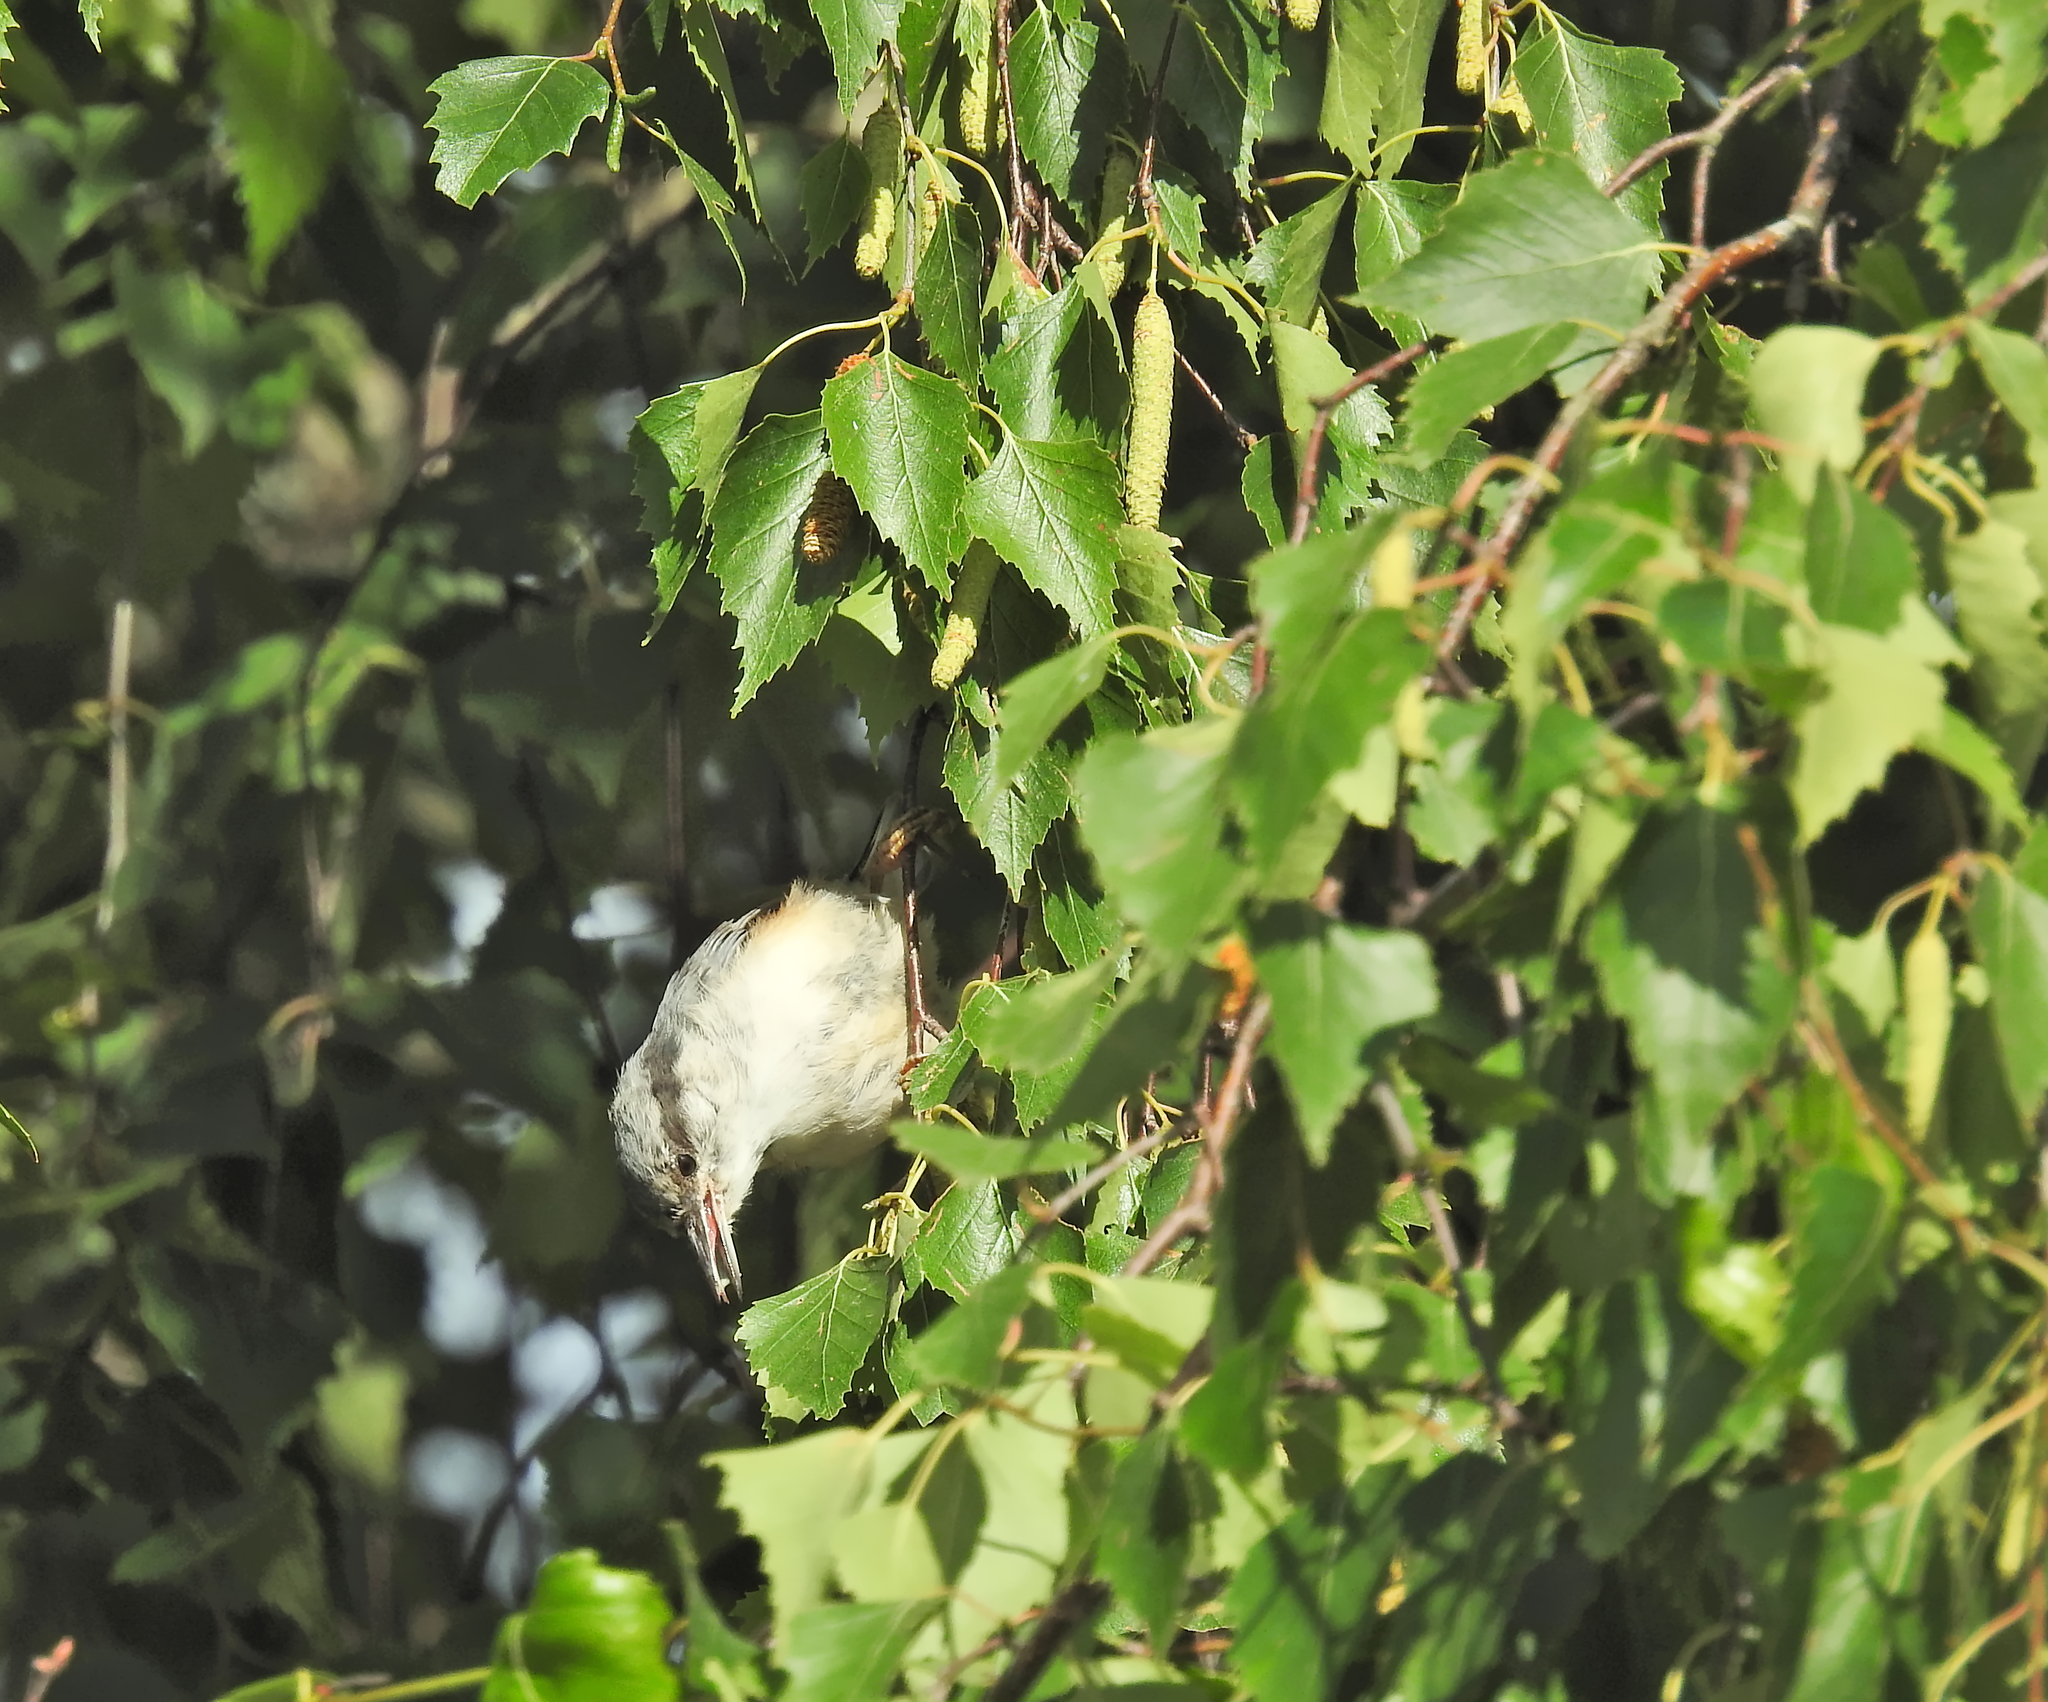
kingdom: Animalia
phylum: Chordata
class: Aves
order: Passeriformes
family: Sittidae
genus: Sitta
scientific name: Sitta europaea
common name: Eurasian nuthatch
